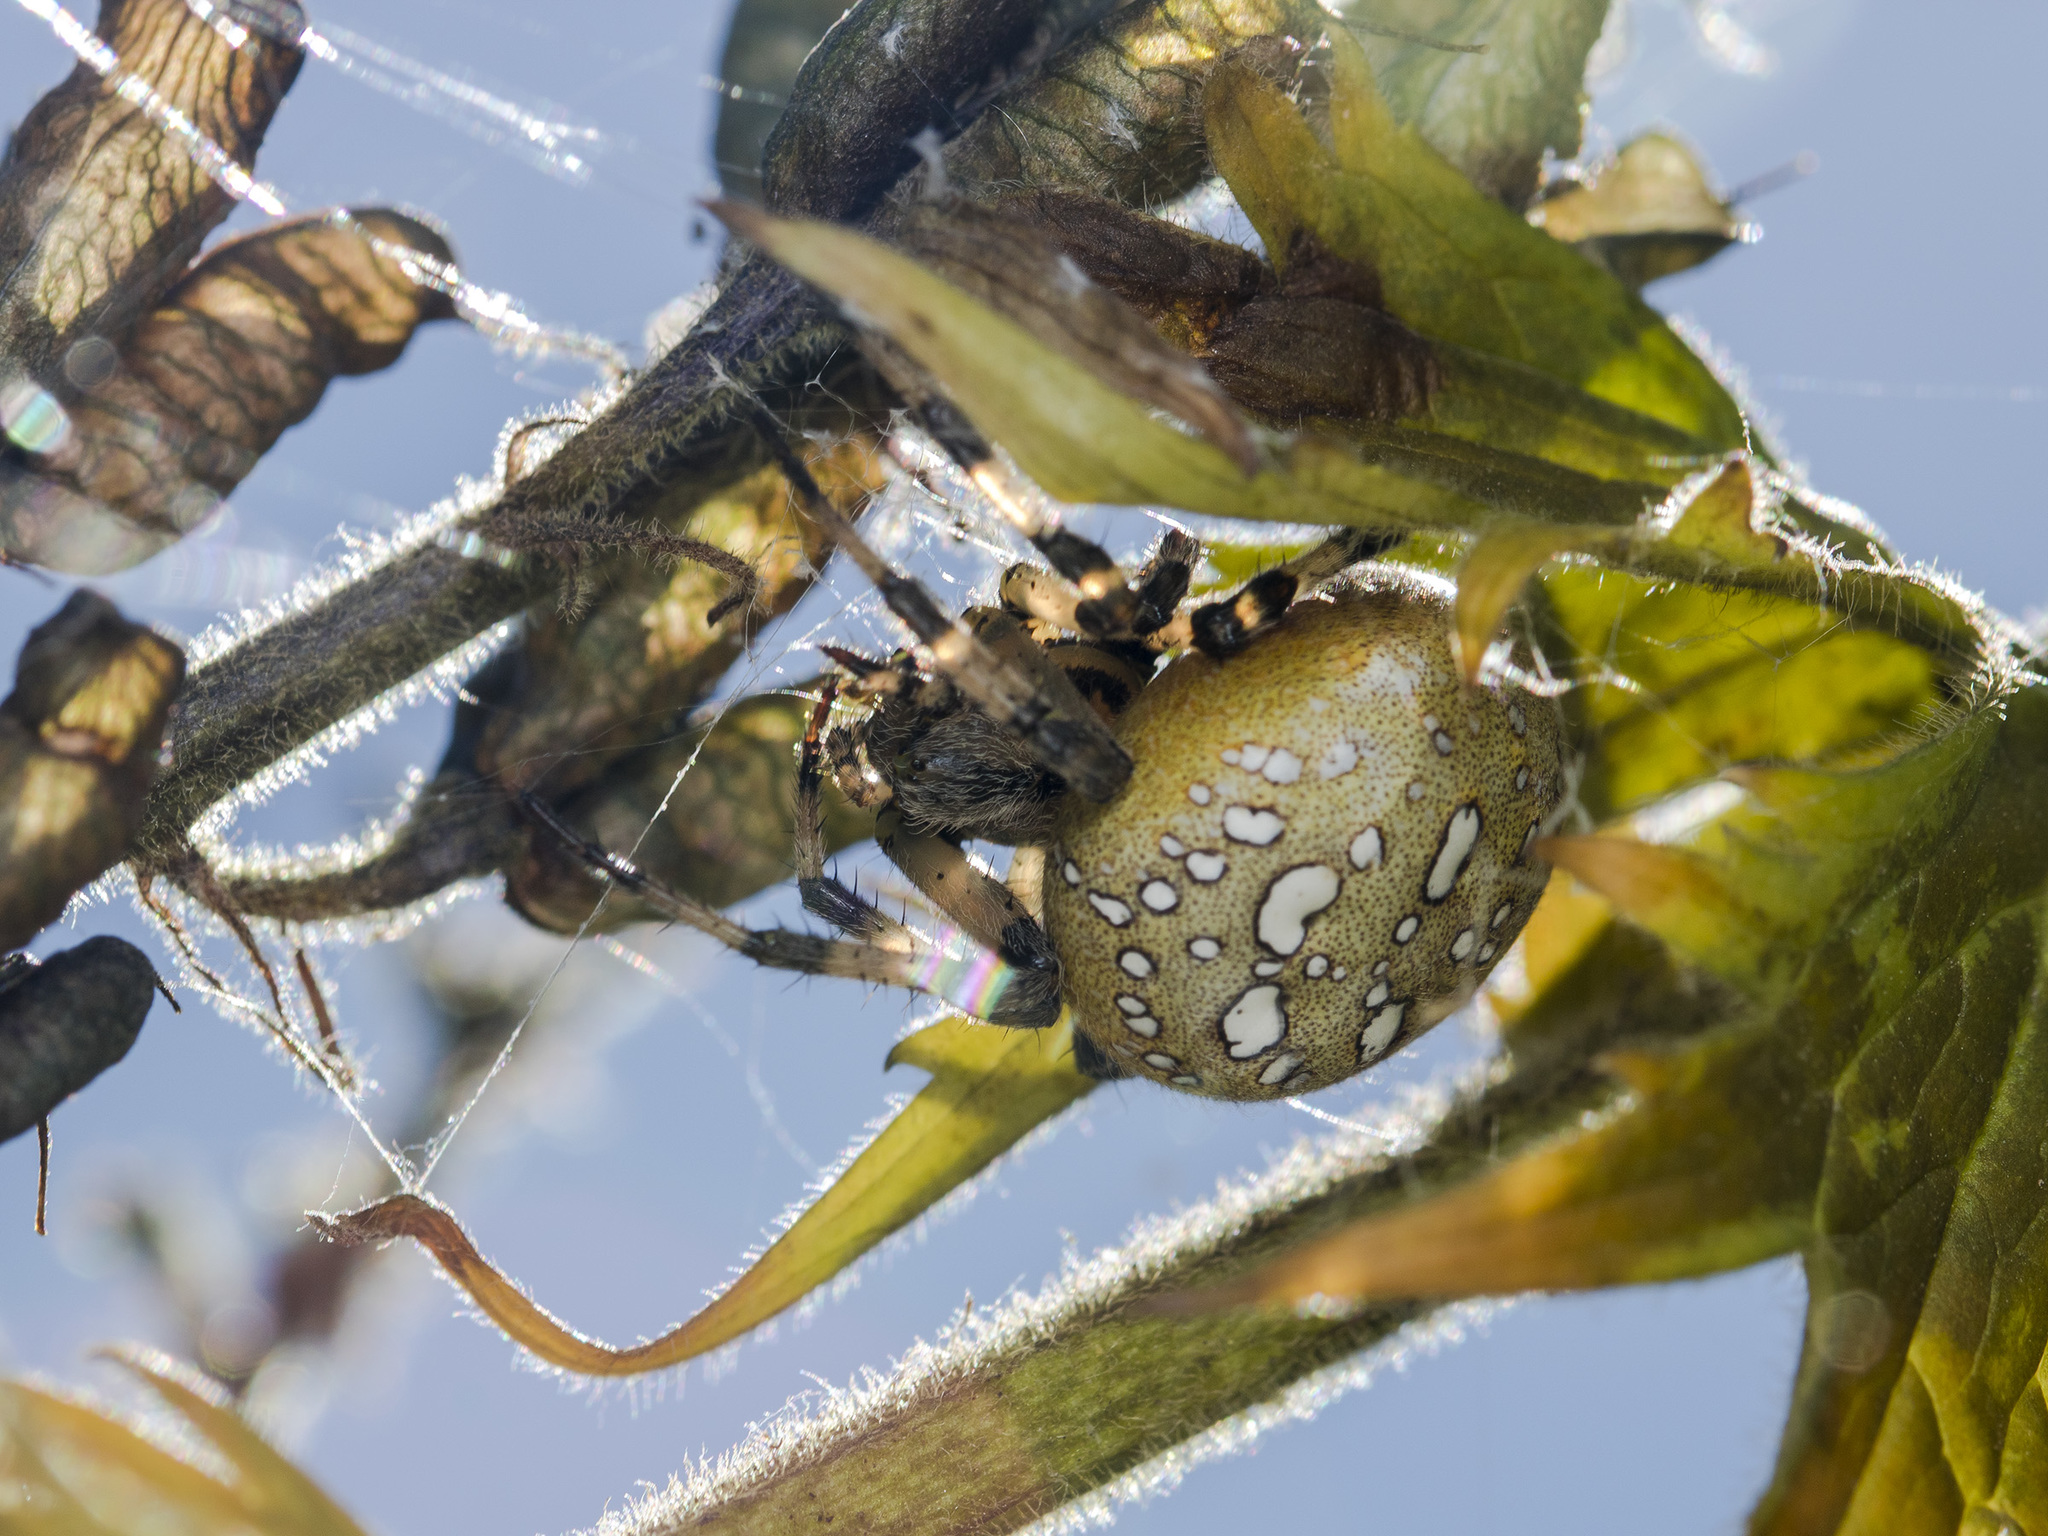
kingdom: Animalia
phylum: Arthropoda
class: Arachnida
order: Araneae
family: Araneidae
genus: Araneus
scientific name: Araneus quadratus
